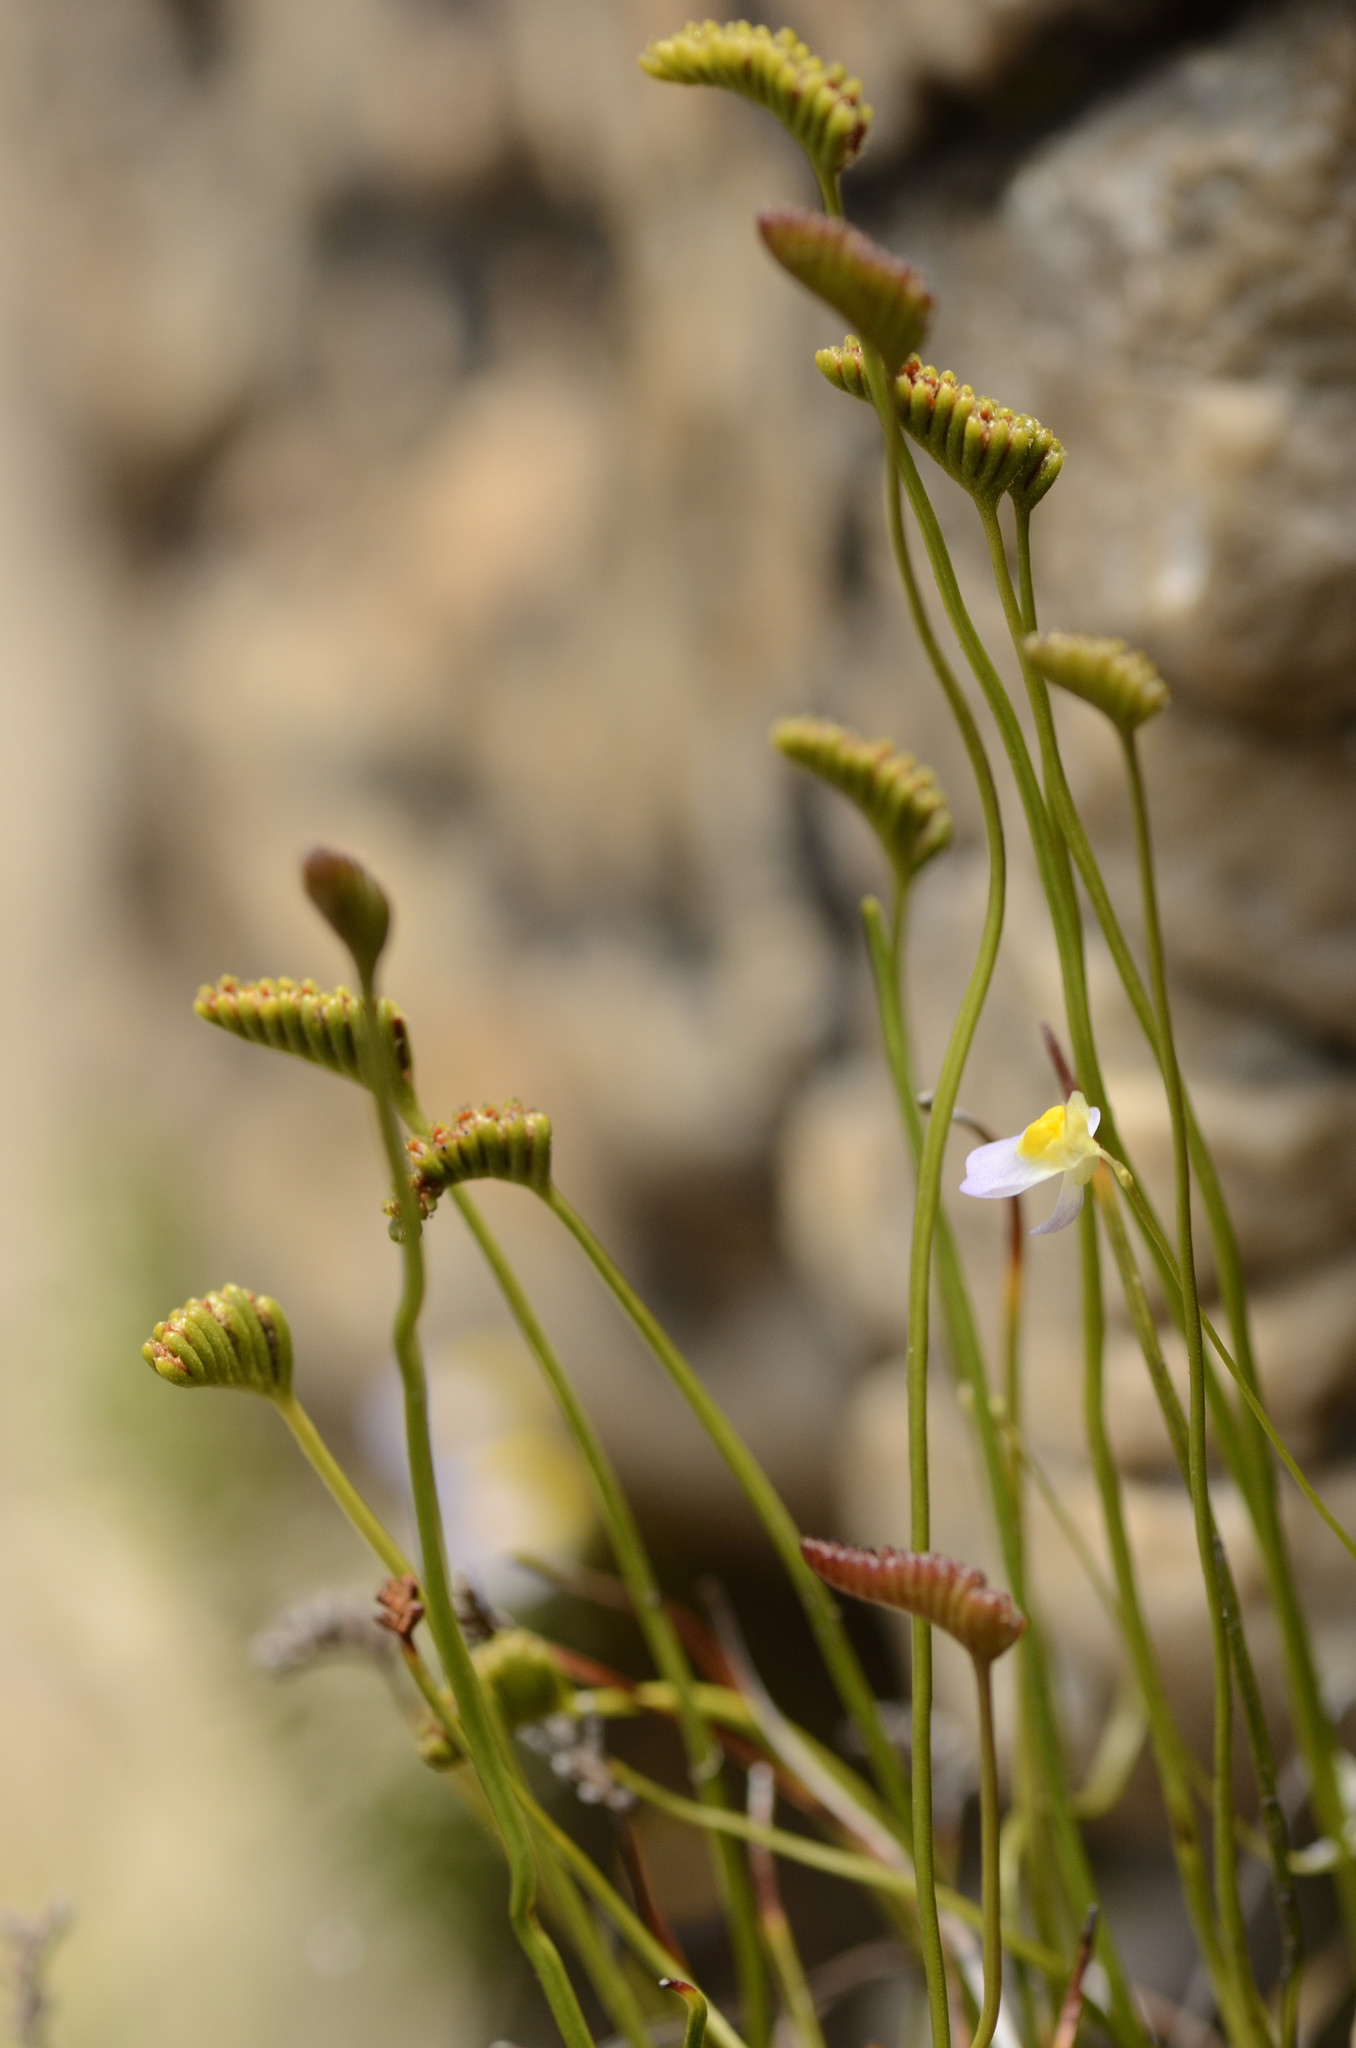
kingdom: Plantae
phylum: Tracheophyta
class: Polypodiopsida
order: Schizaeales
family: Schizaeaceae
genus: Microschizaea
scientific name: Microschizaea tenella
